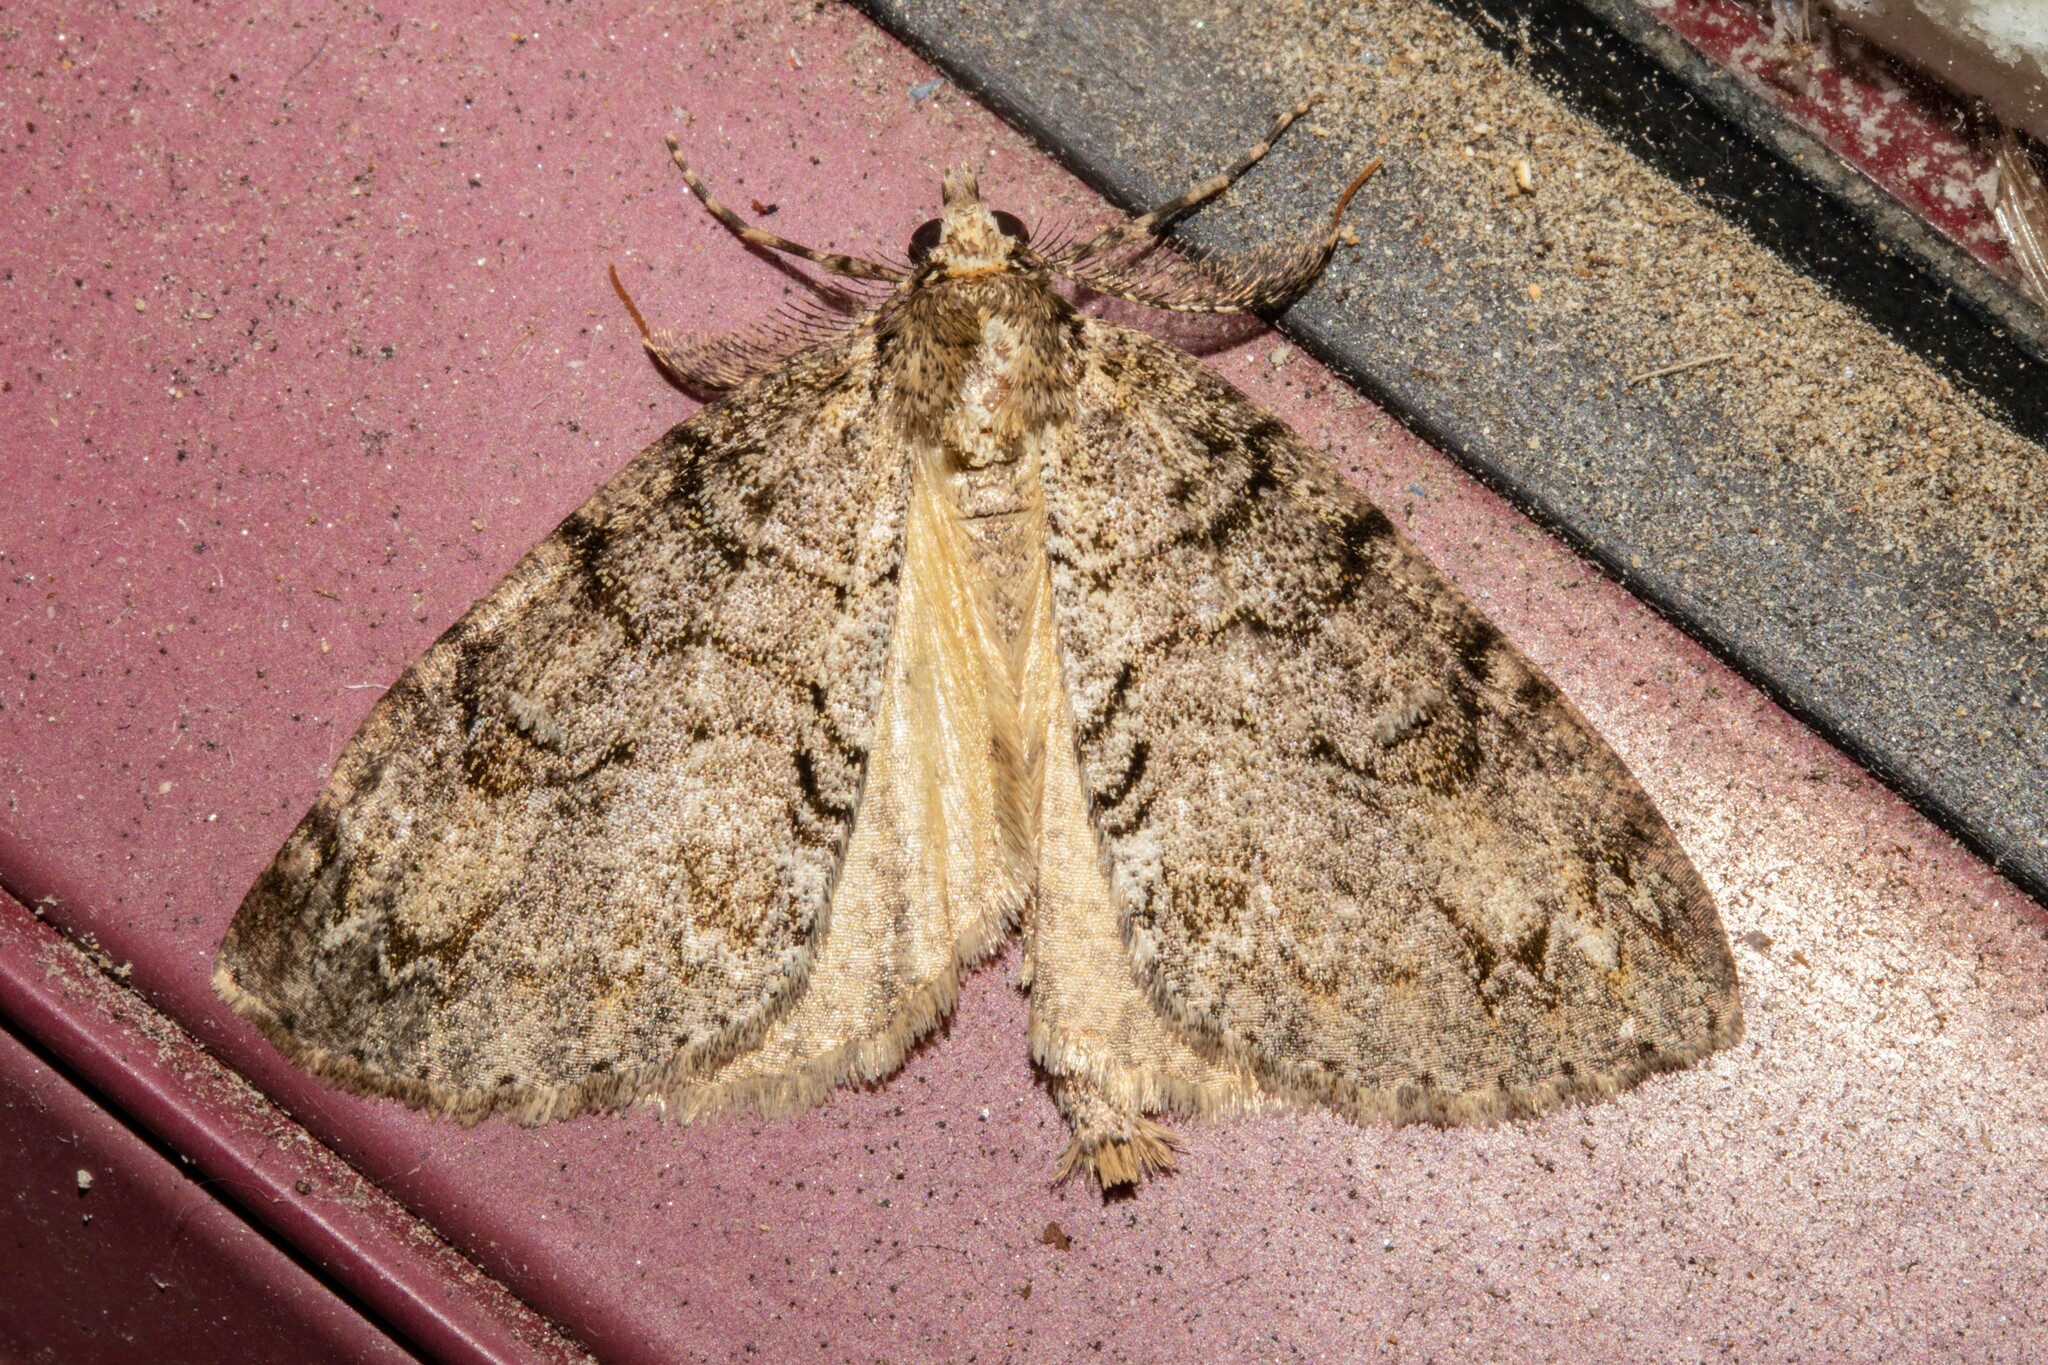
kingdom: Animalia
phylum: Arthropoda
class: Insecta
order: Lepidoptera
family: Geometridae
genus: Pseudocoremia
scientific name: Pseudocoremia suavis
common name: Common forest looper
